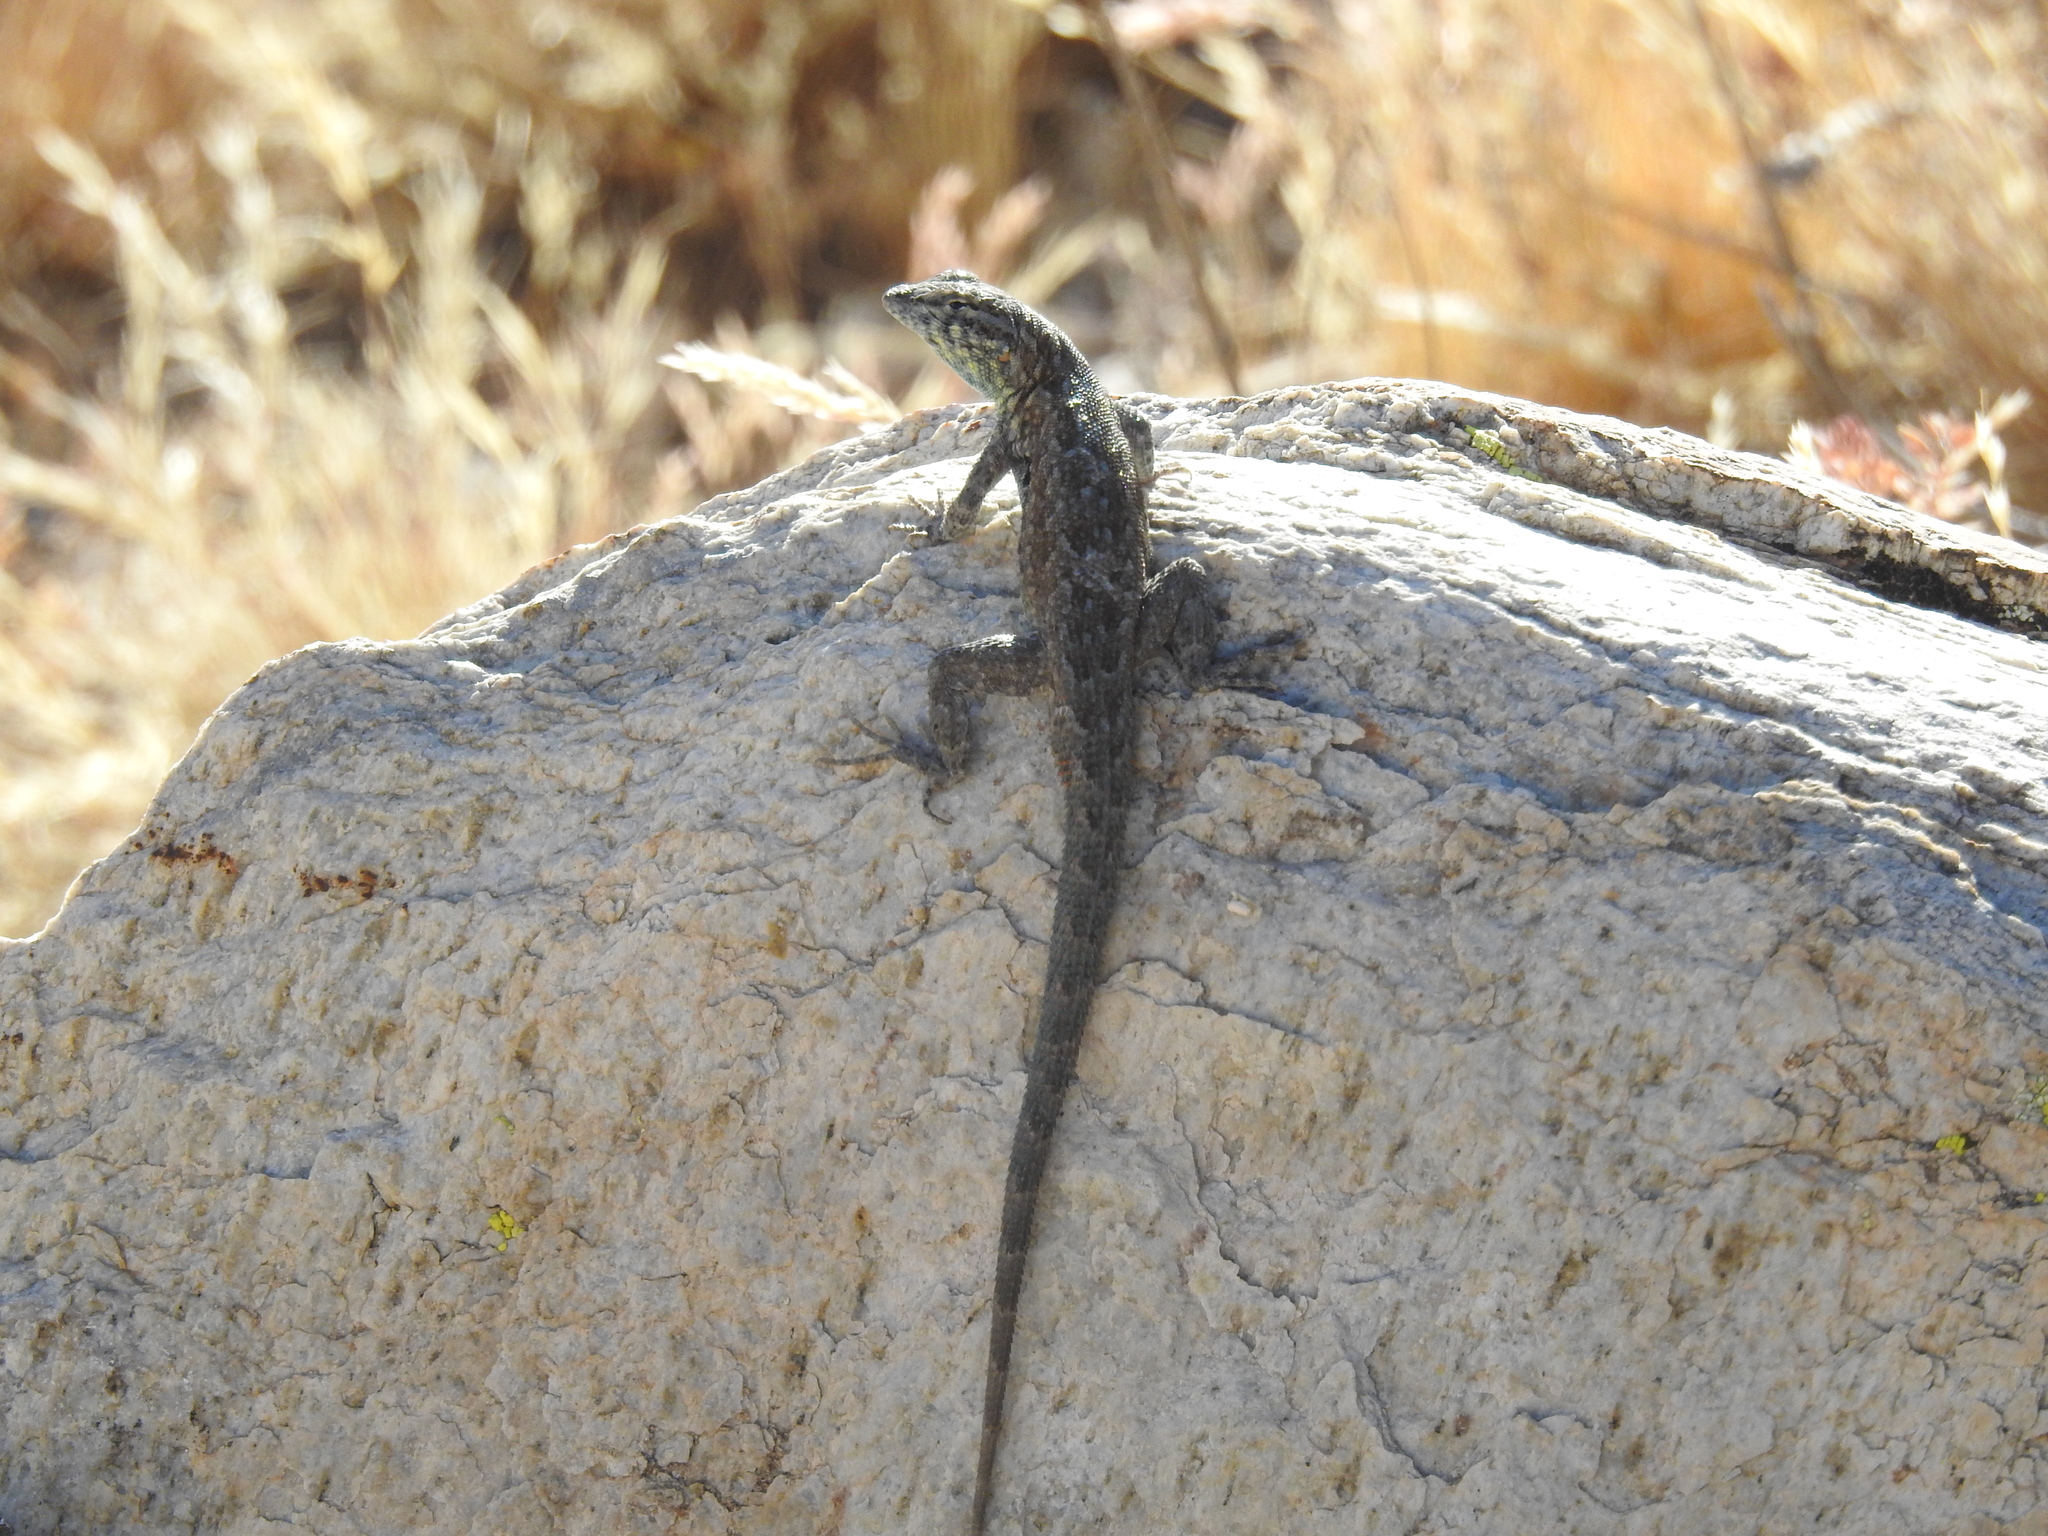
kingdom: Animalia
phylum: Chordata
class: Squamata
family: Phrynosomatidae
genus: Uta
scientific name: Uta stansburiana
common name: Side-blotched lizard
